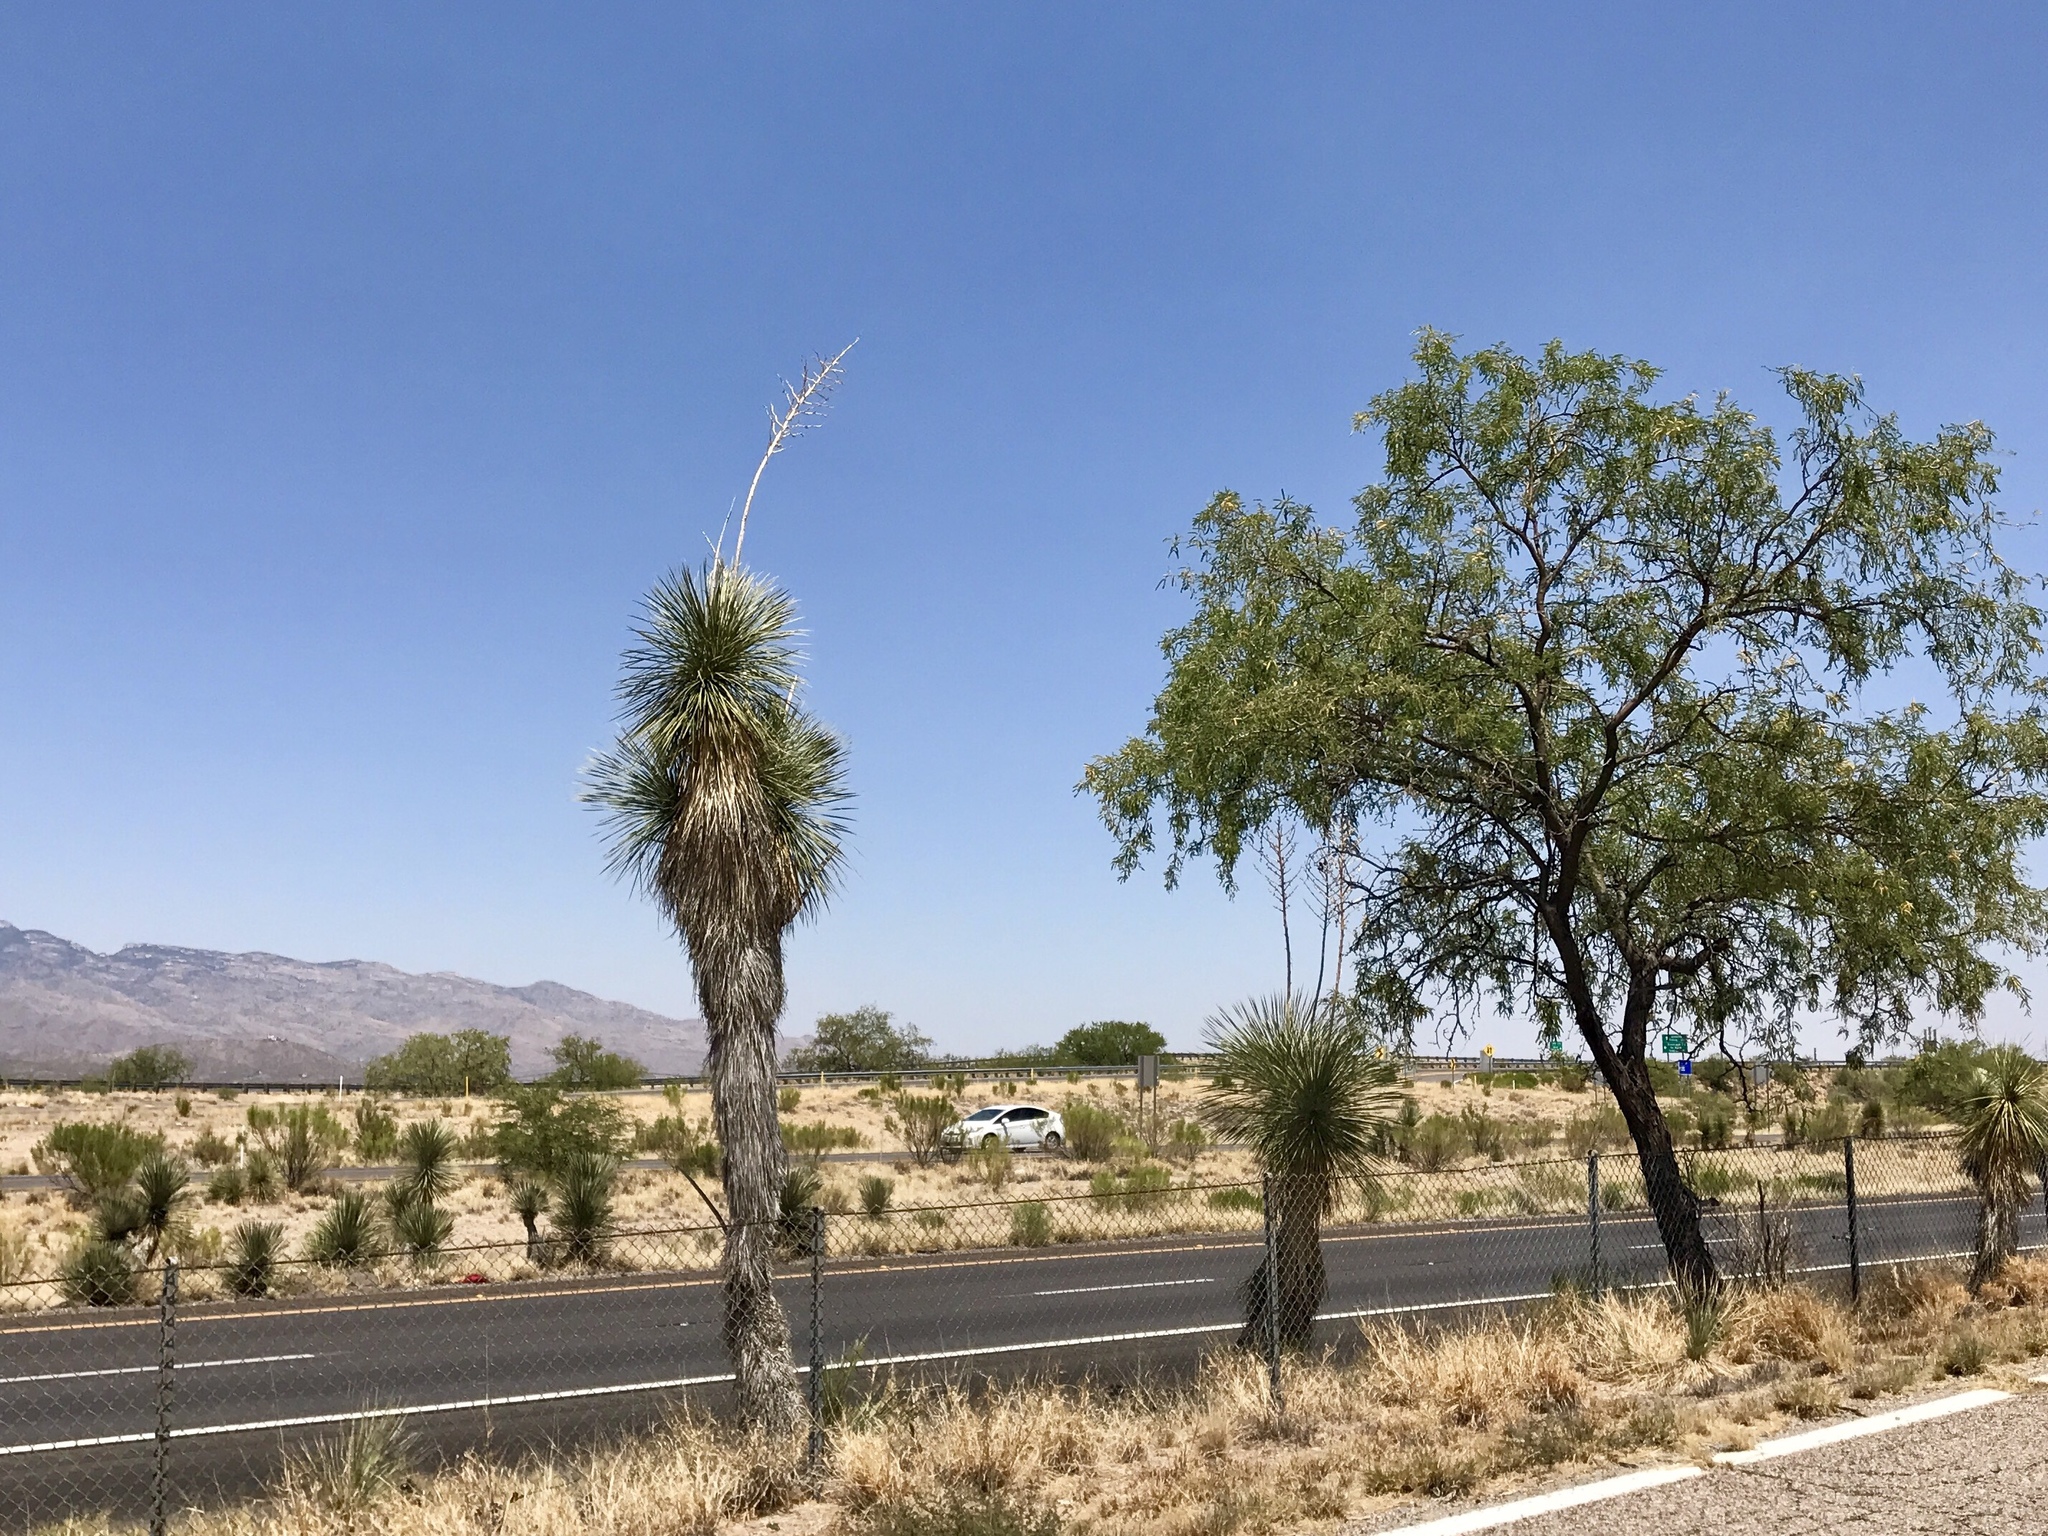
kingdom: Plantae
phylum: Tracheophyta
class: Liliopsida
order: Asparagales
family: Asparagaceae
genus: Yucca
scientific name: Yucca elata
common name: Palmella
